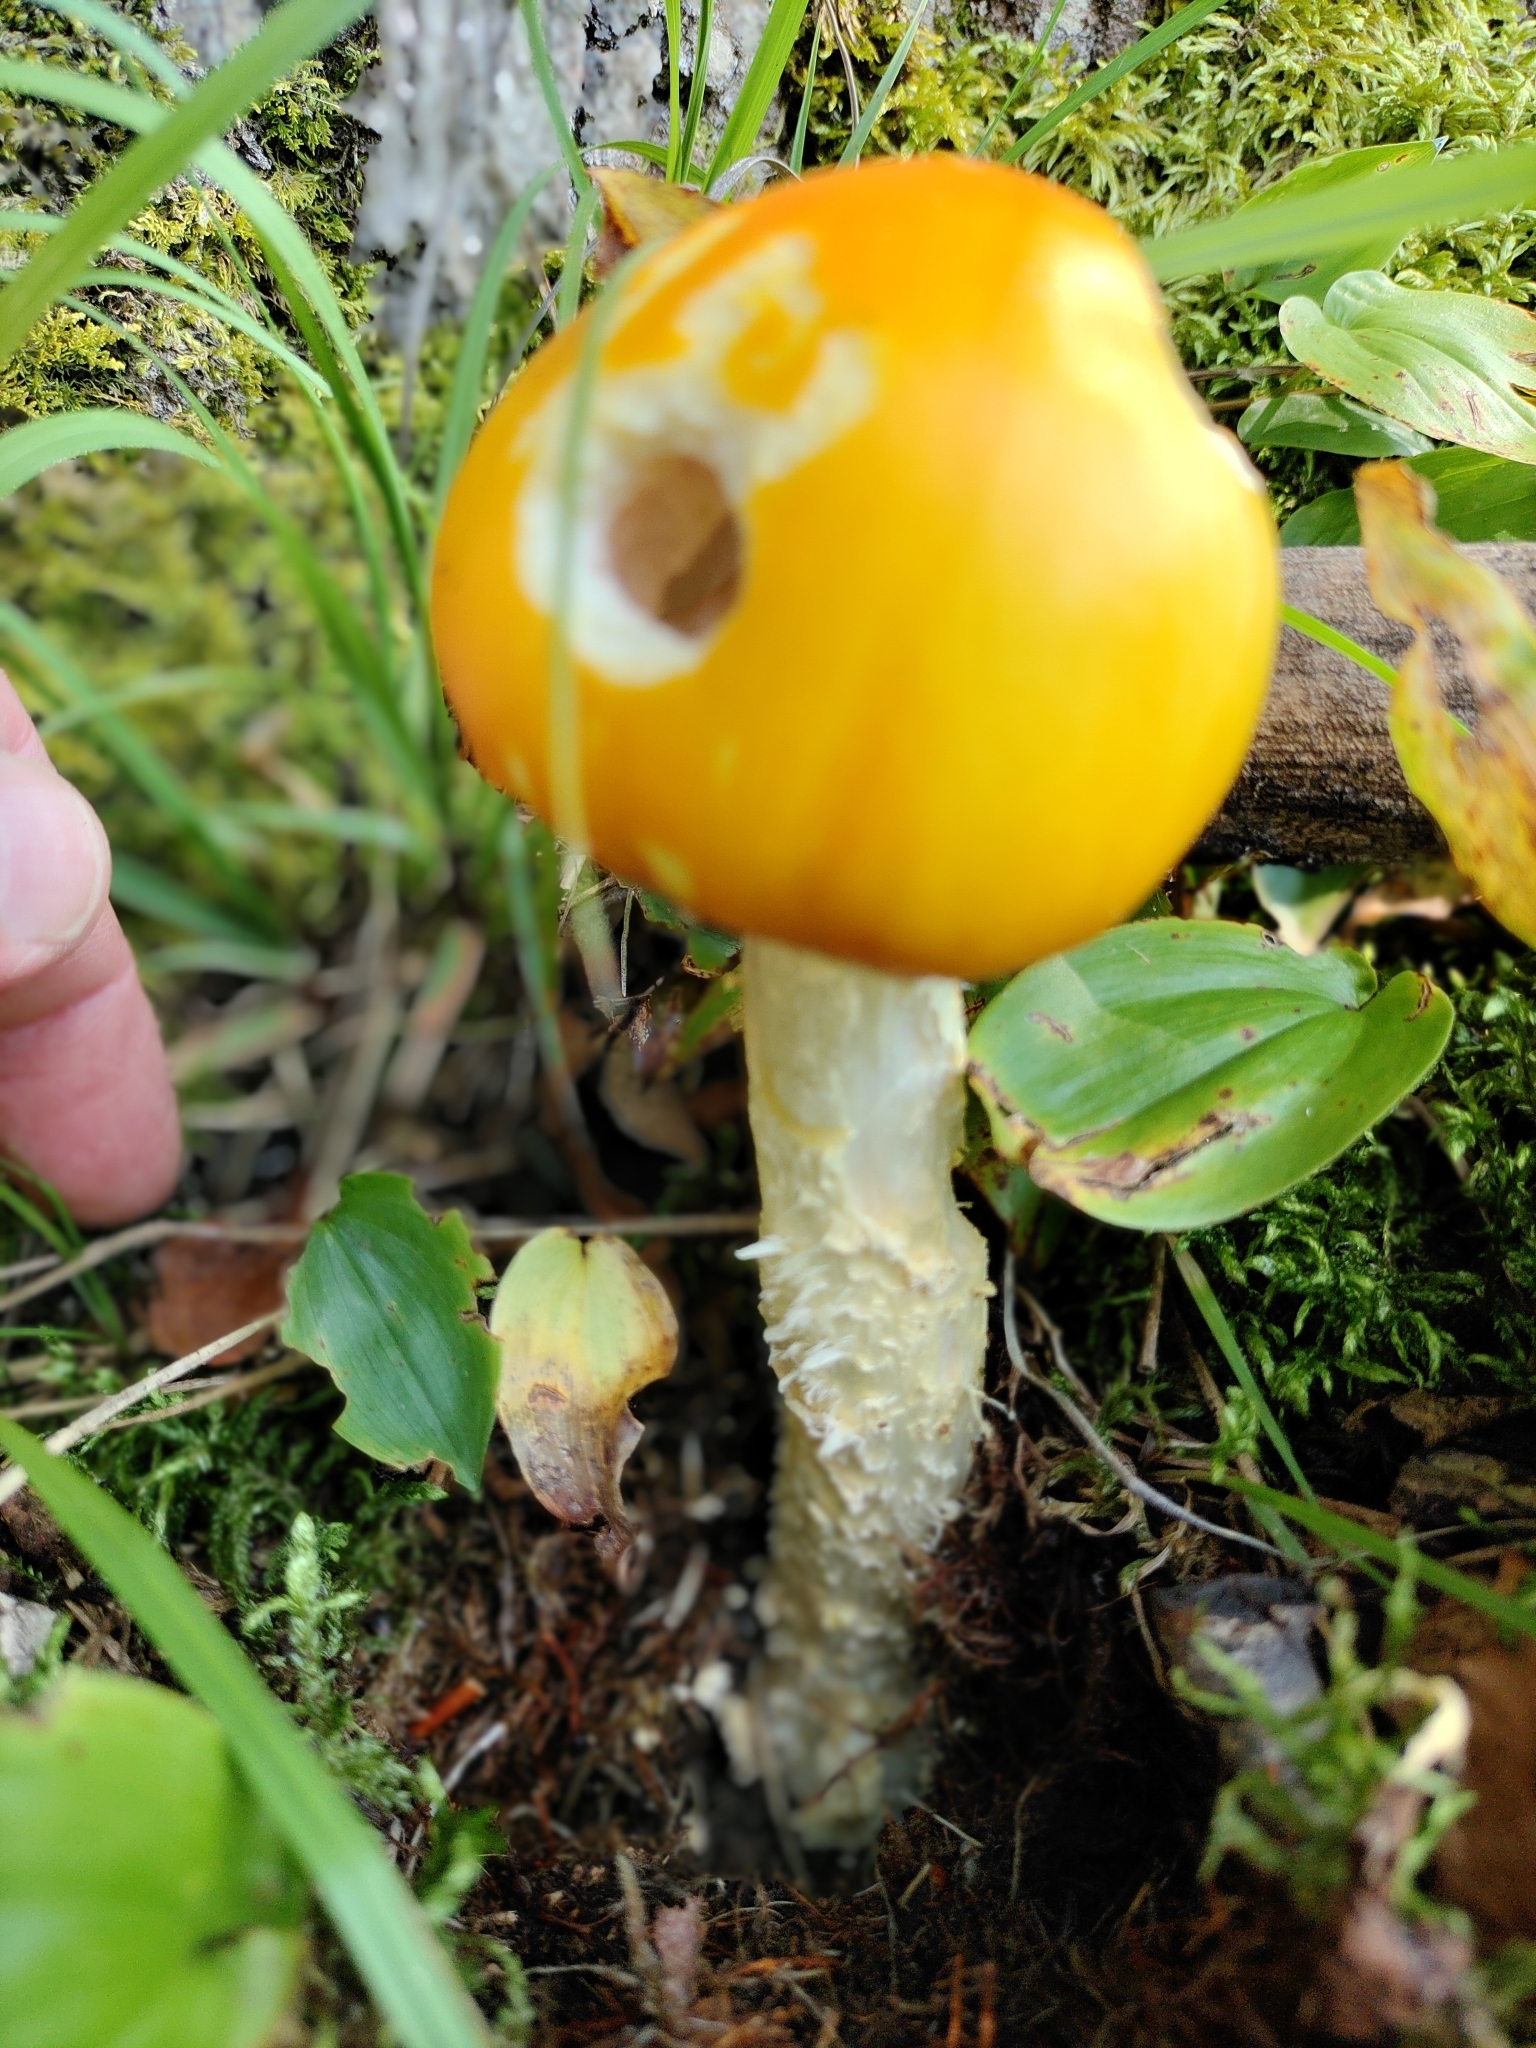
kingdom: Fungi
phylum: Basidiomycota
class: Agaricomycetes
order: Agaricales
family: Amanitaceae
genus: Amanita
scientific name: Amanita muscaria
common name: Fly agaric
